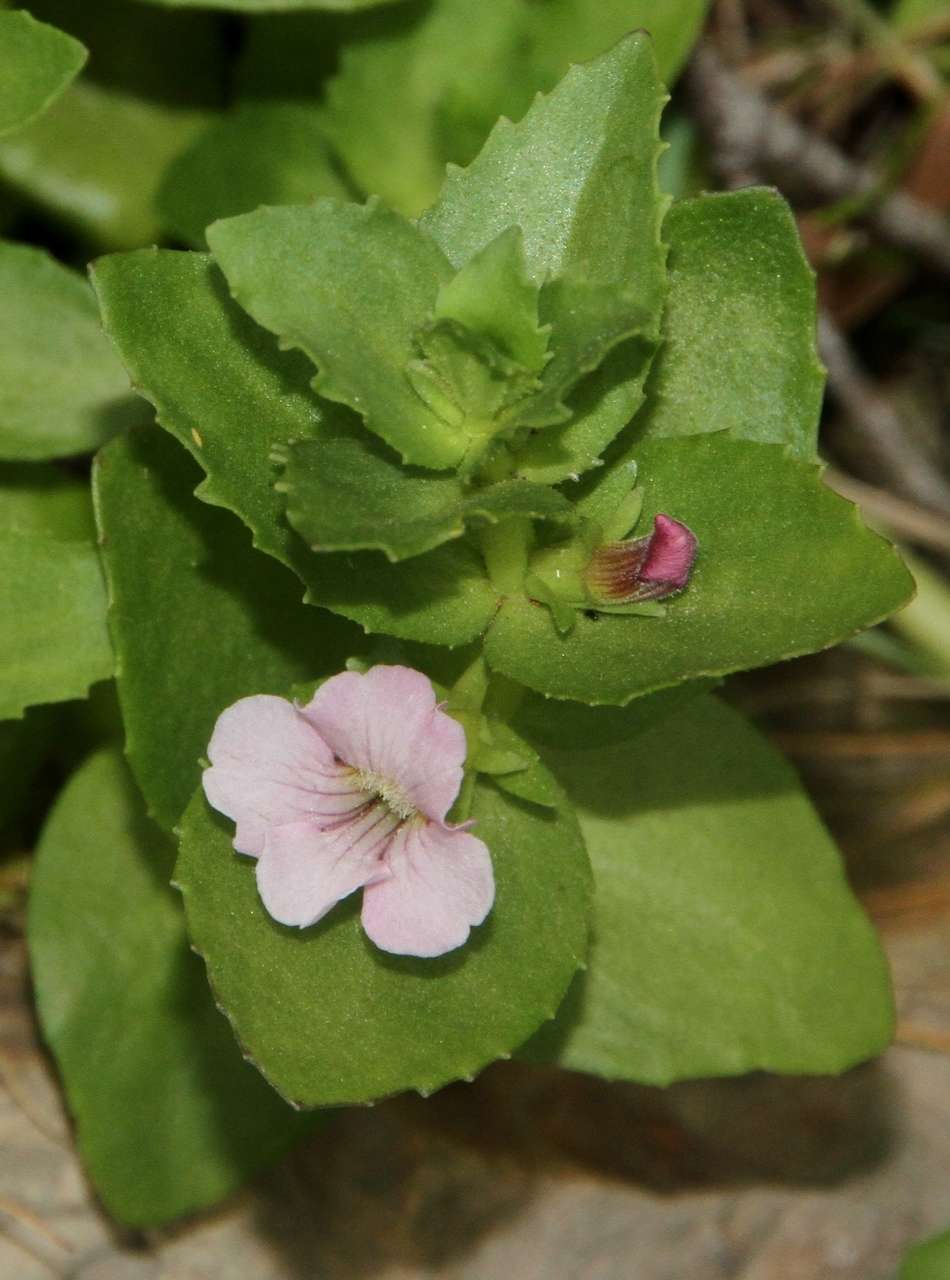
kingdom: Plantae
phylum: Tracheophyta
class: Magnoliopsida
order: Lamiales
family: Plantaginaceae
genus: Gratiola
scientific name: Gratiola peruviana
